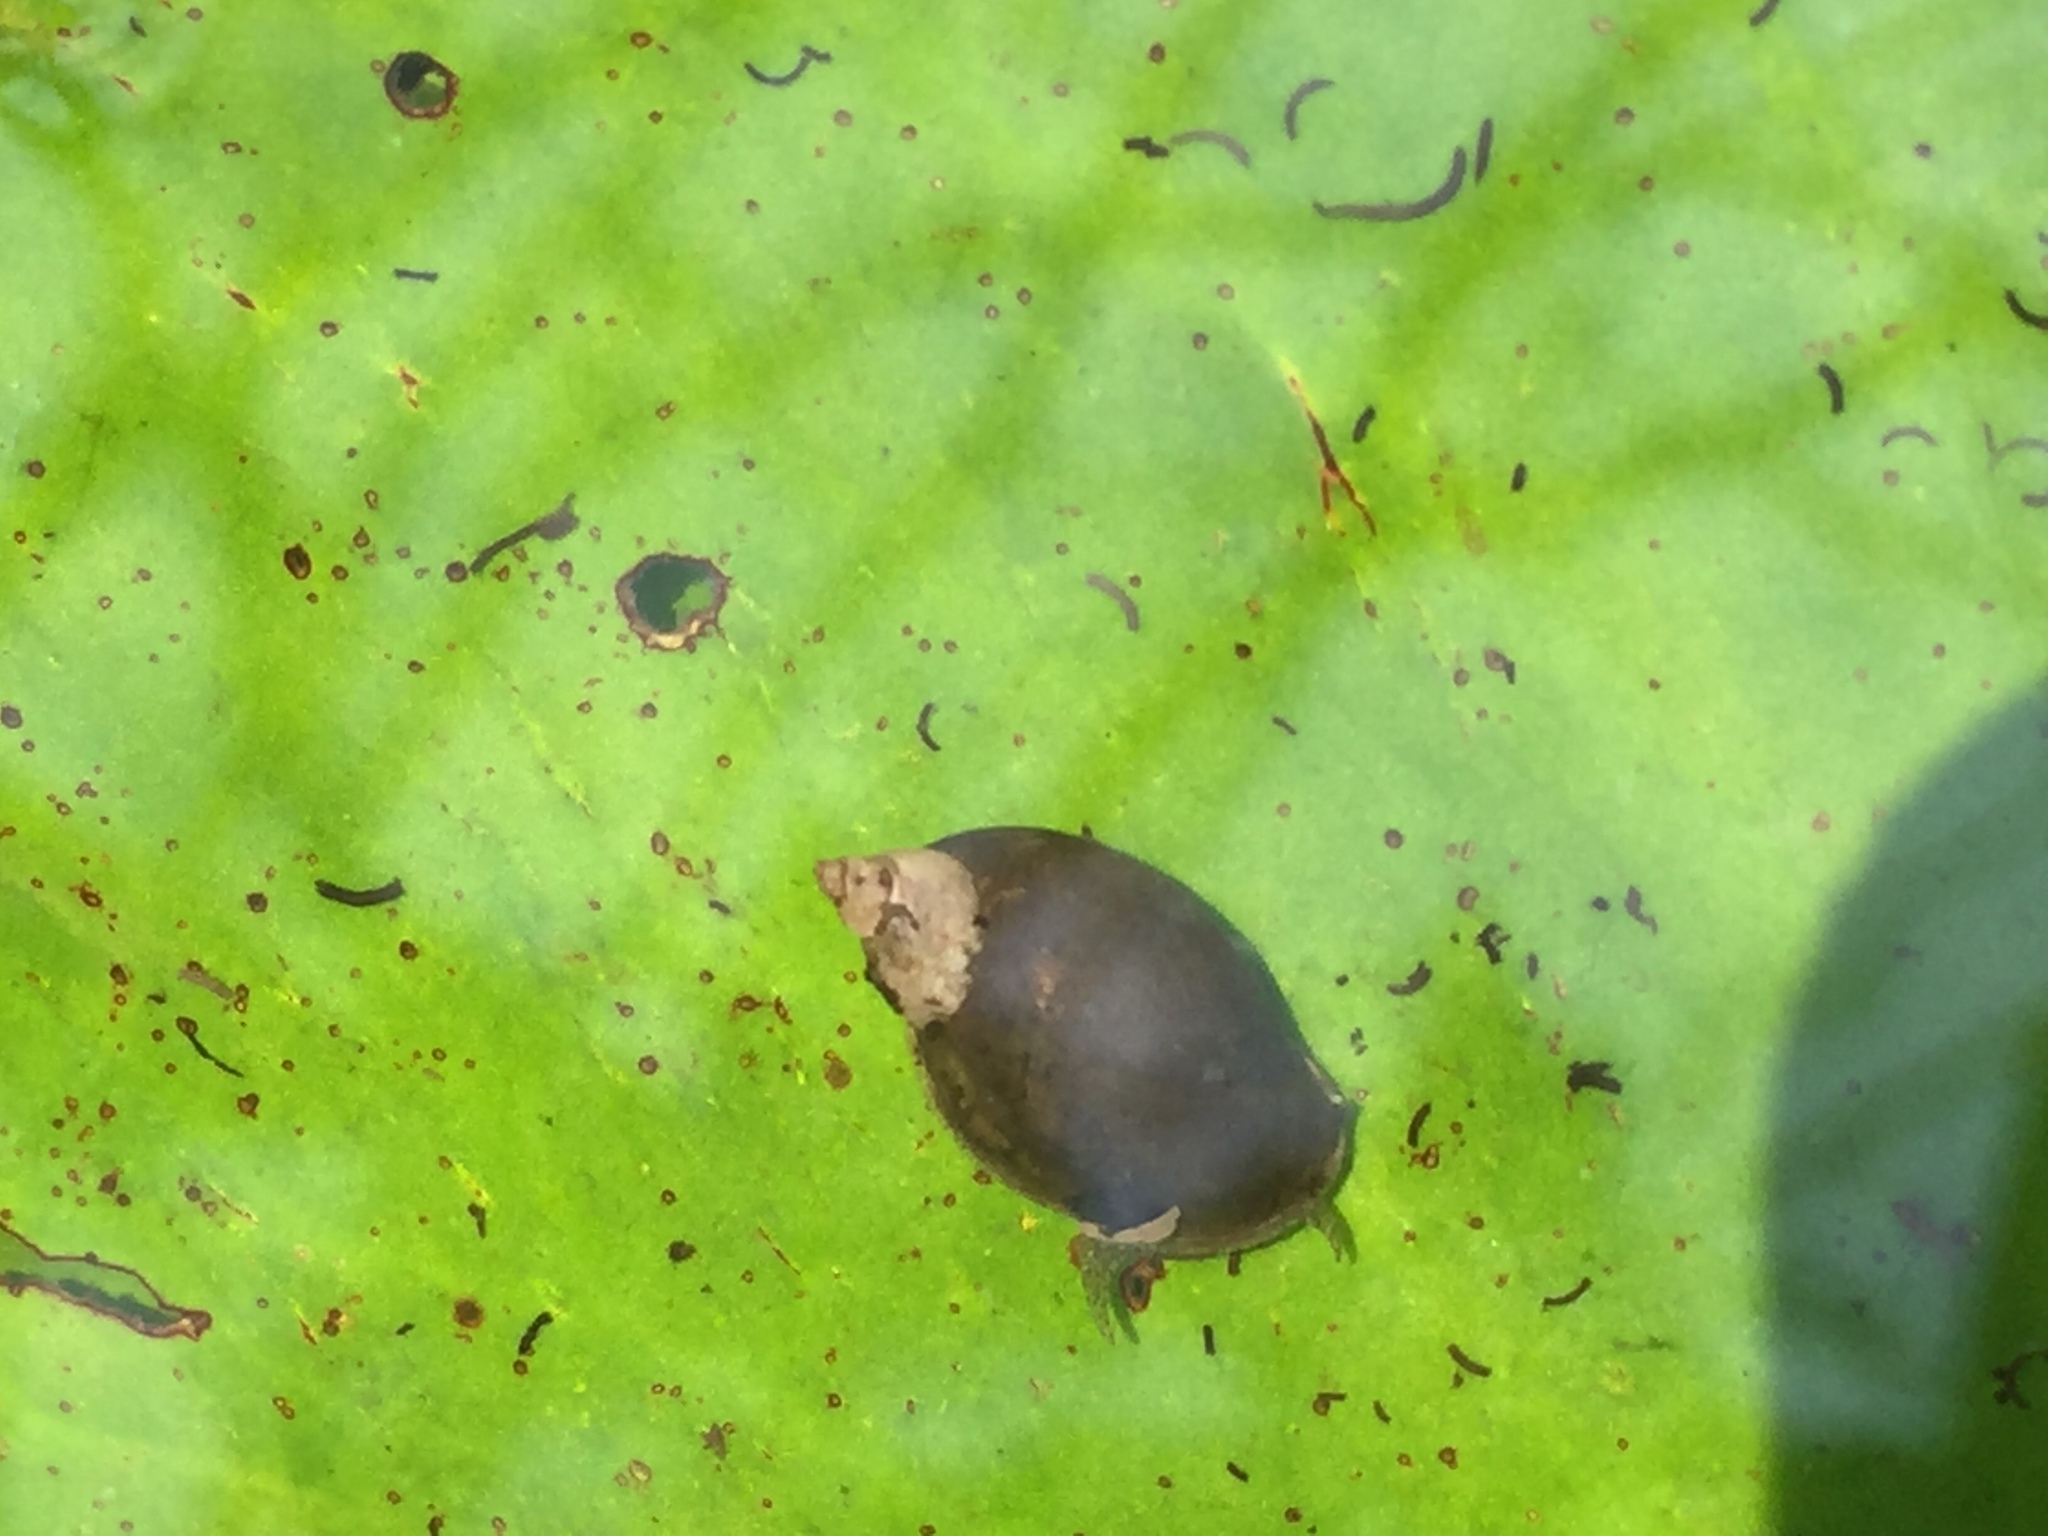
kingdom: Animalia
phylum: Mollusca
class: Gastropoda
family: Lymnaeidae
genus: Radix
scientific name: Radix rubiginosa
